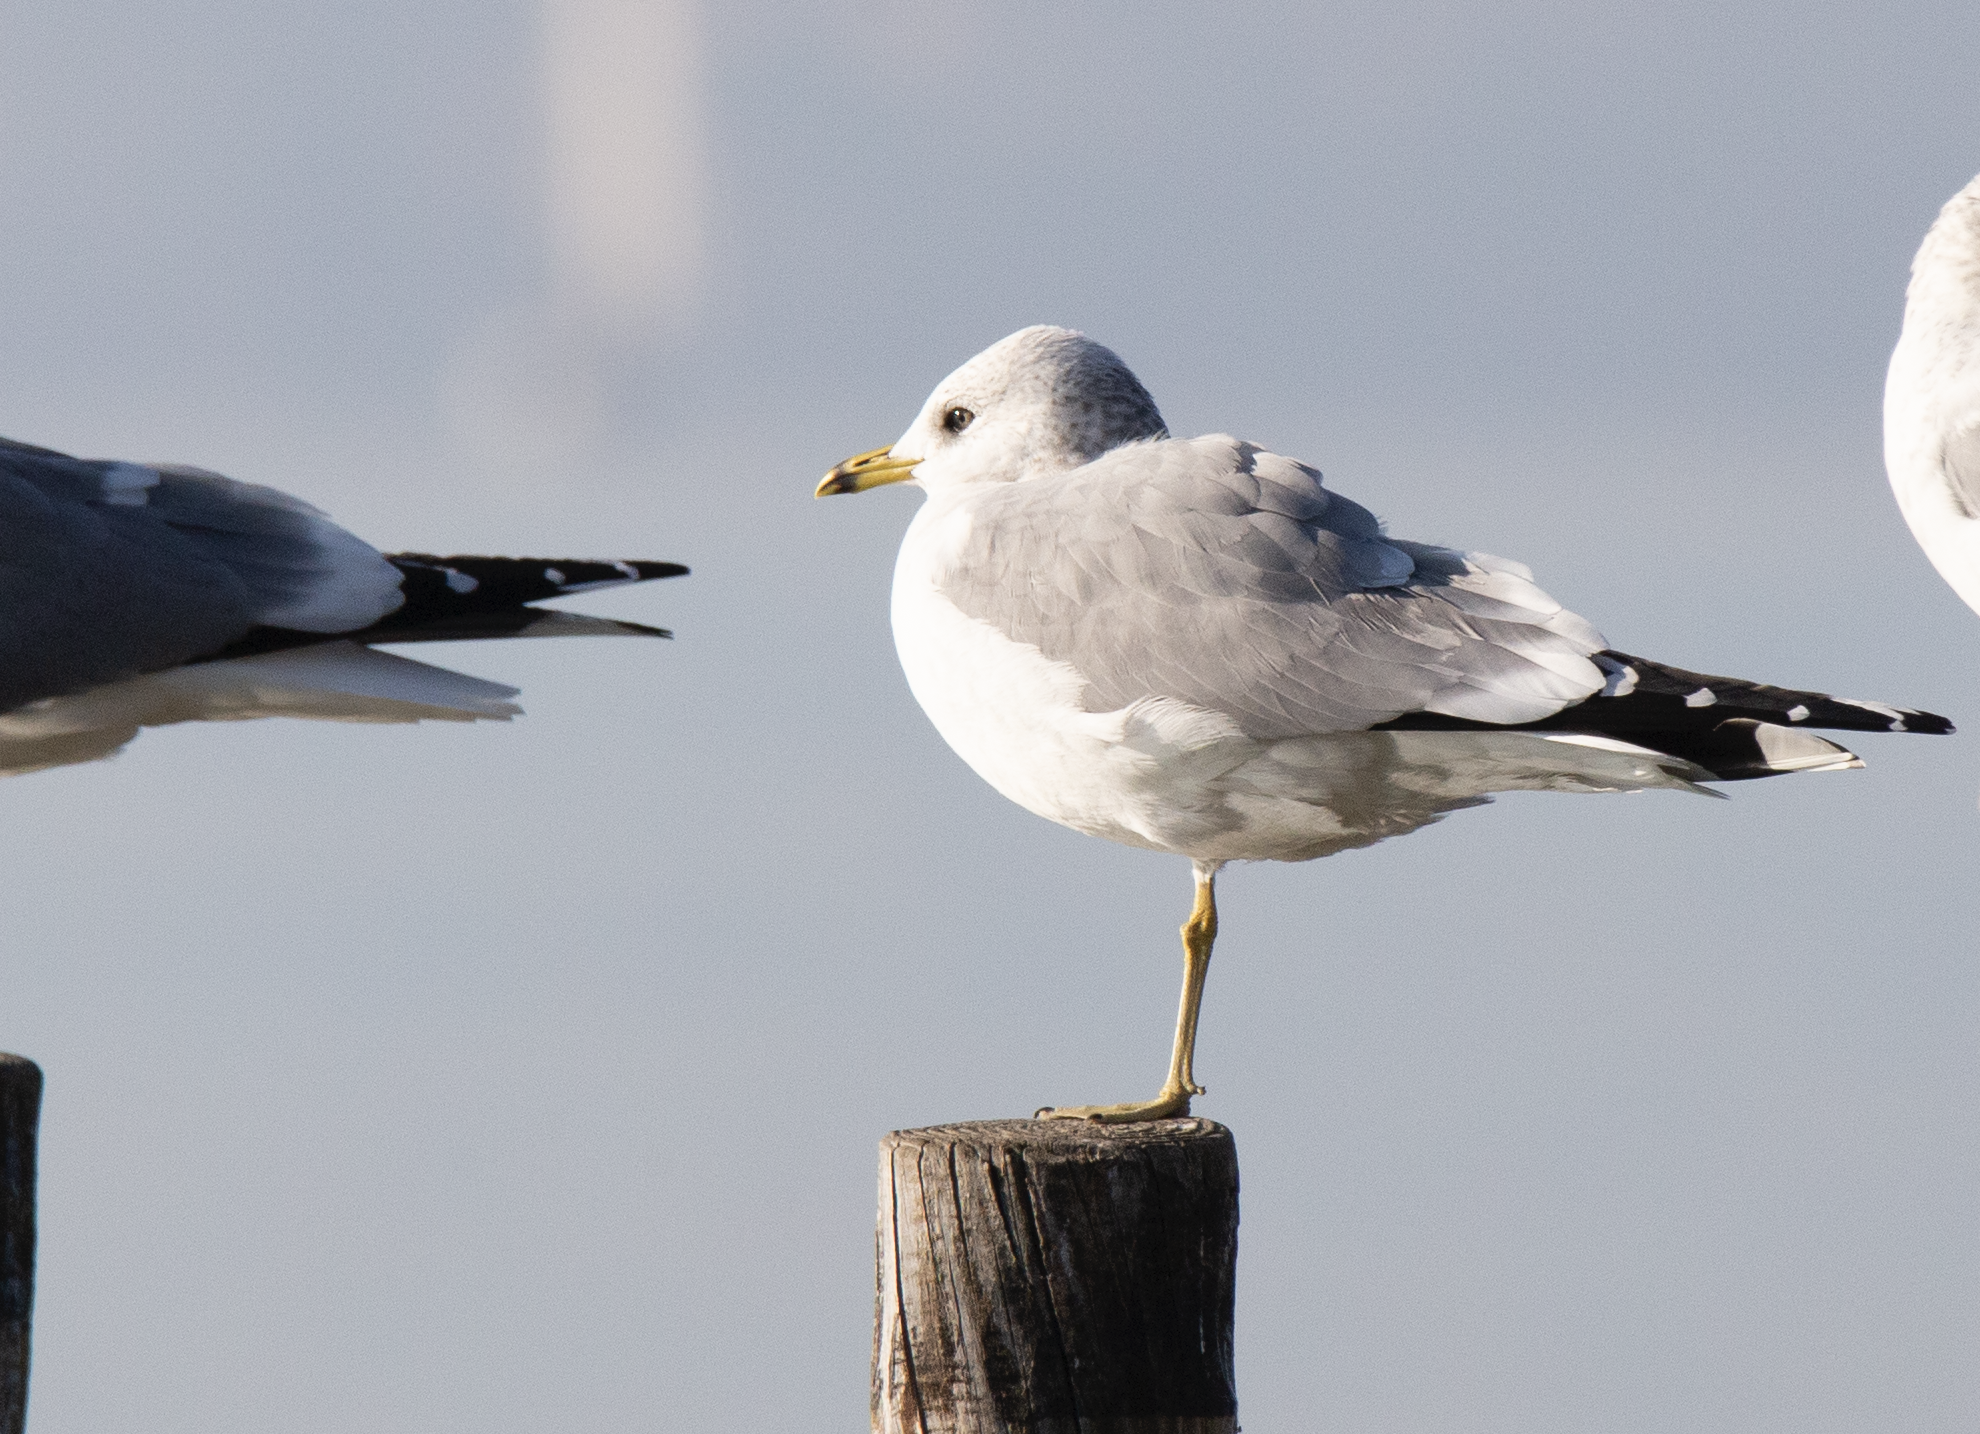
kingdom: Animalia
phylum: Chordata
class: Aves
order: Charadriiformes
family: Laridae
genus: Larus
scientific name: Larus canus
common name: Mew gull
